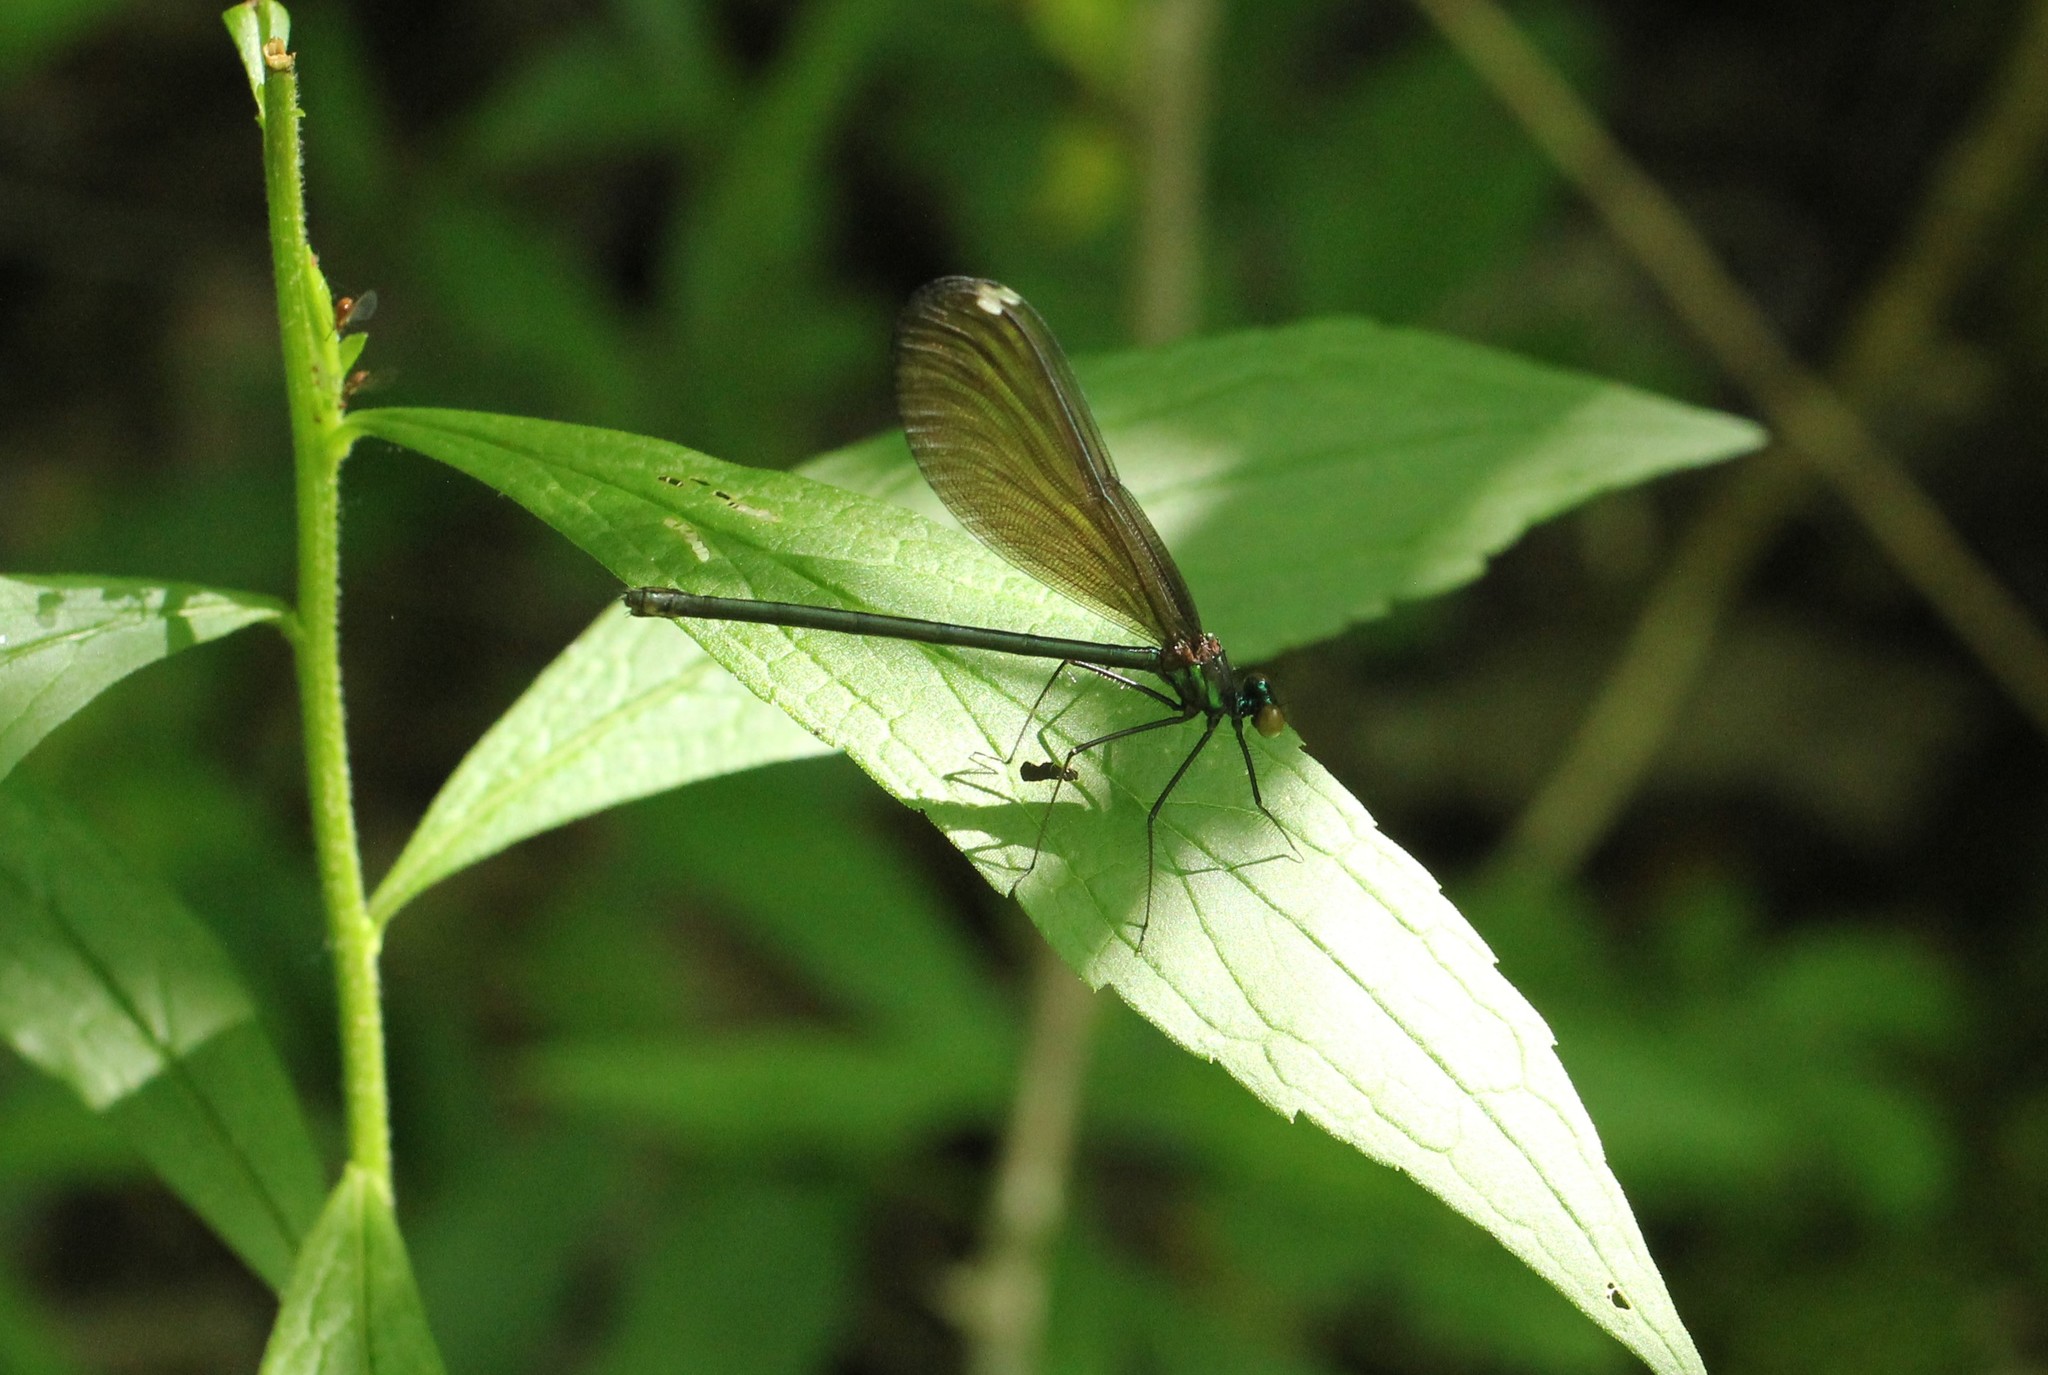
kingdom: Animalia
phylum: Arthropoda
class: Insecta
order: Odonata
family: Calopterygidae
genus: Calopteryx
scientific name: Calopteryx maculata
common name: Ebony jewelwing
